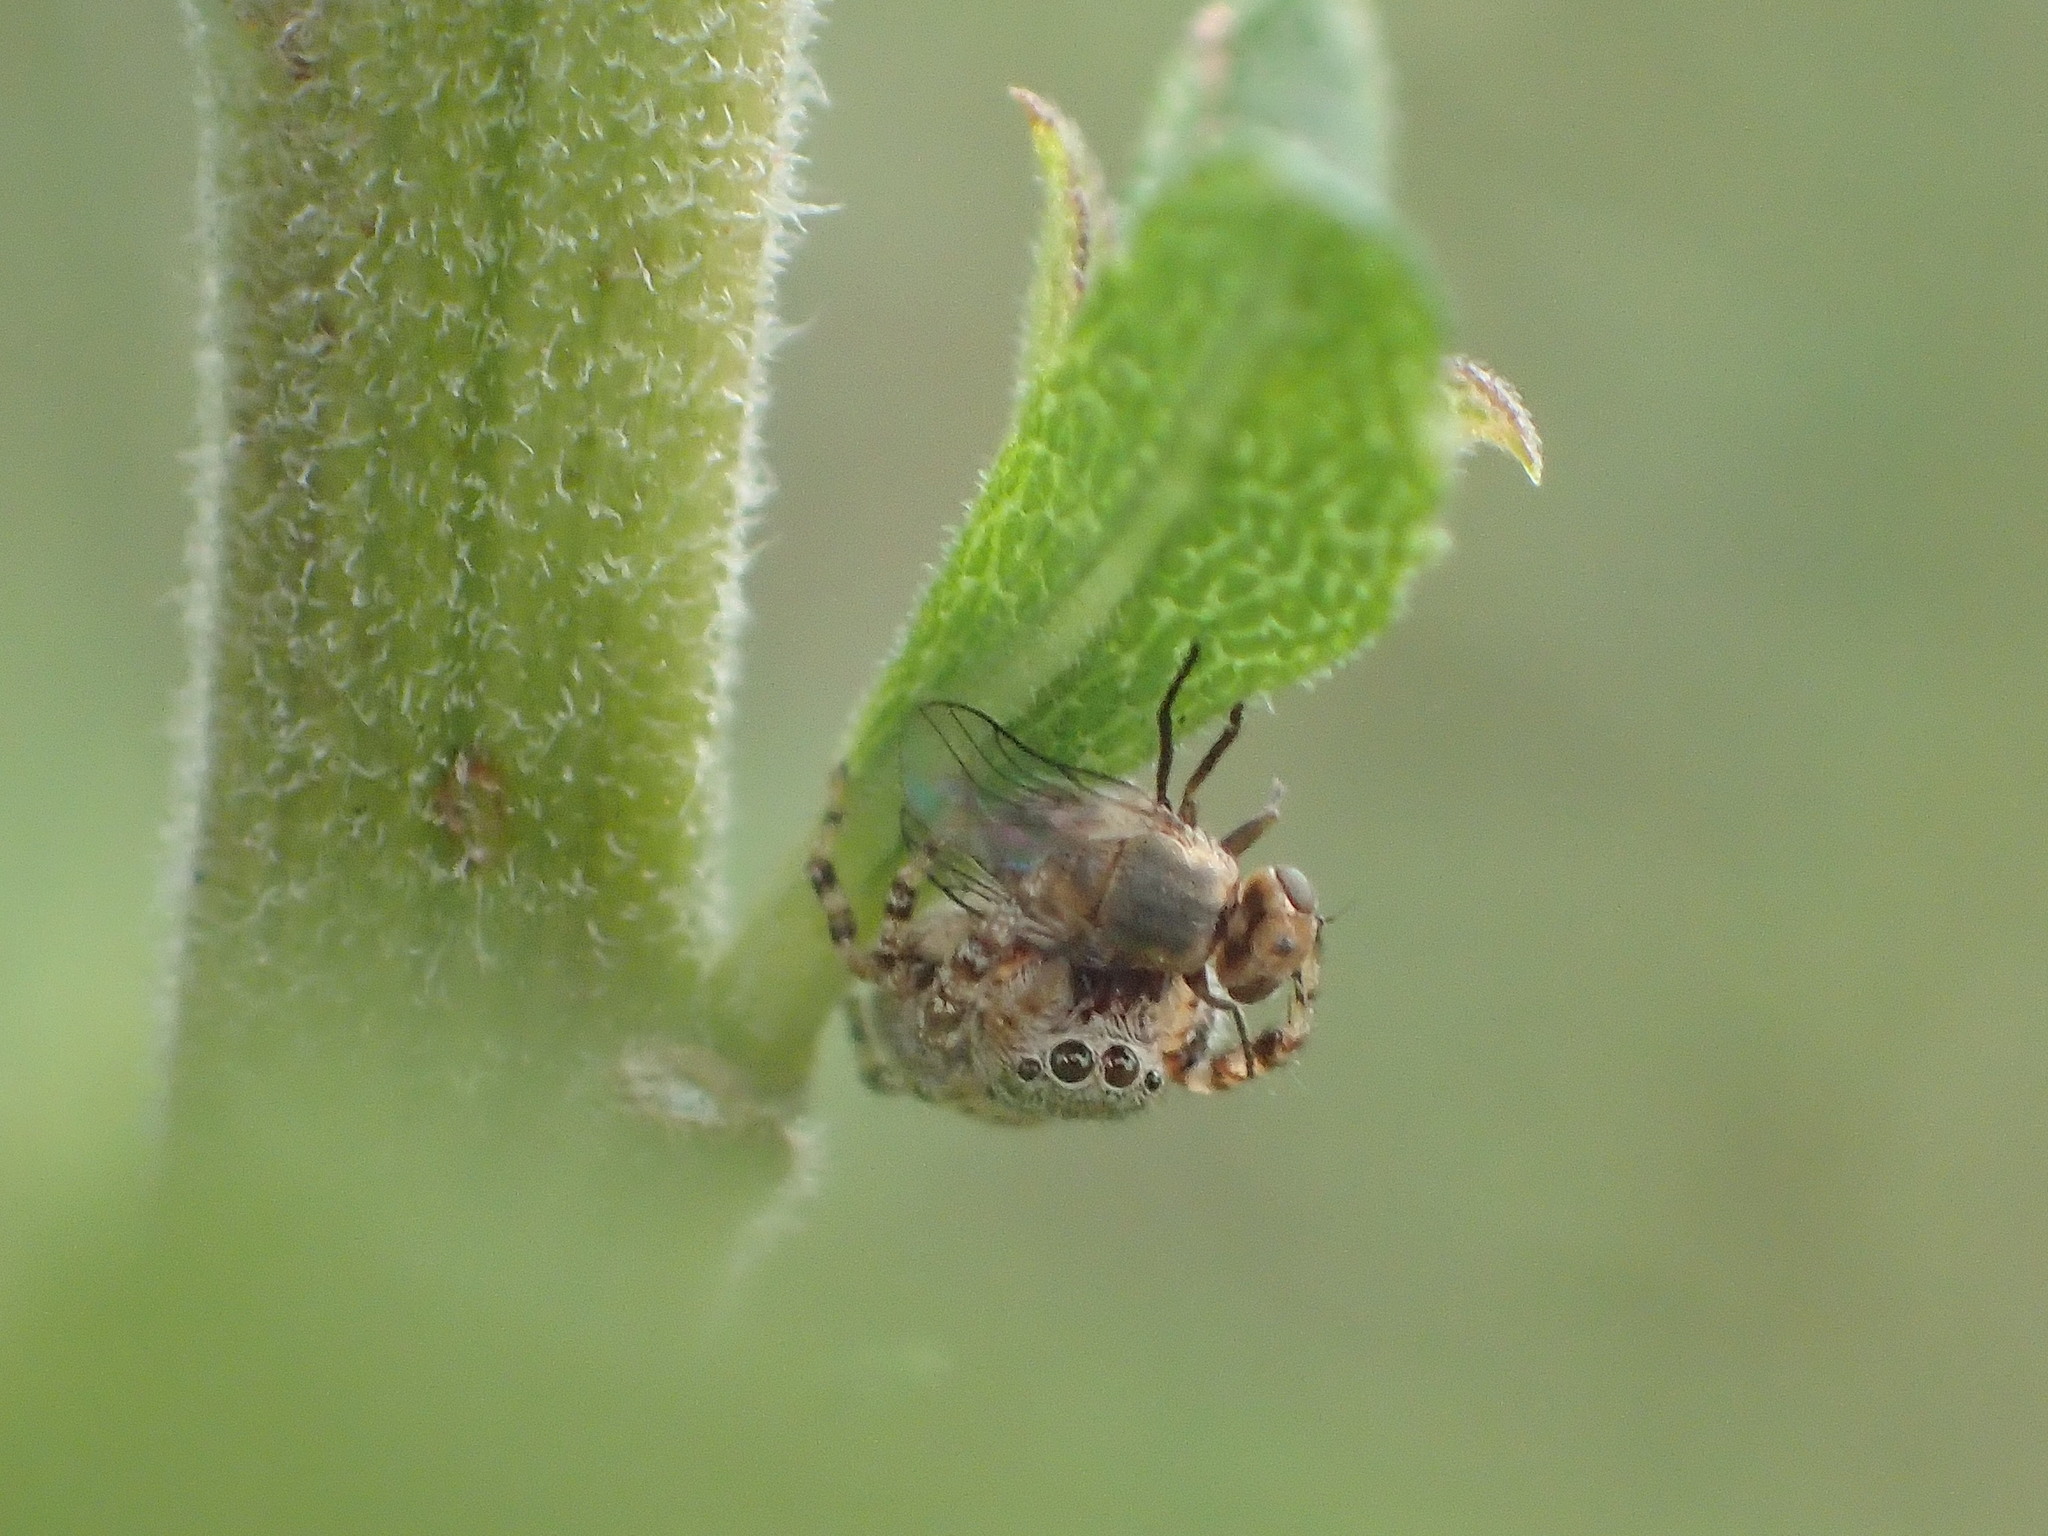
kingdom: Animalia
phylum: Arthropoda
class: Arachnida
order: Araneae
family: Salticidae
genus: Pelegrina
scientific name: Pelegrina galathea
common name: Jumping spiders
